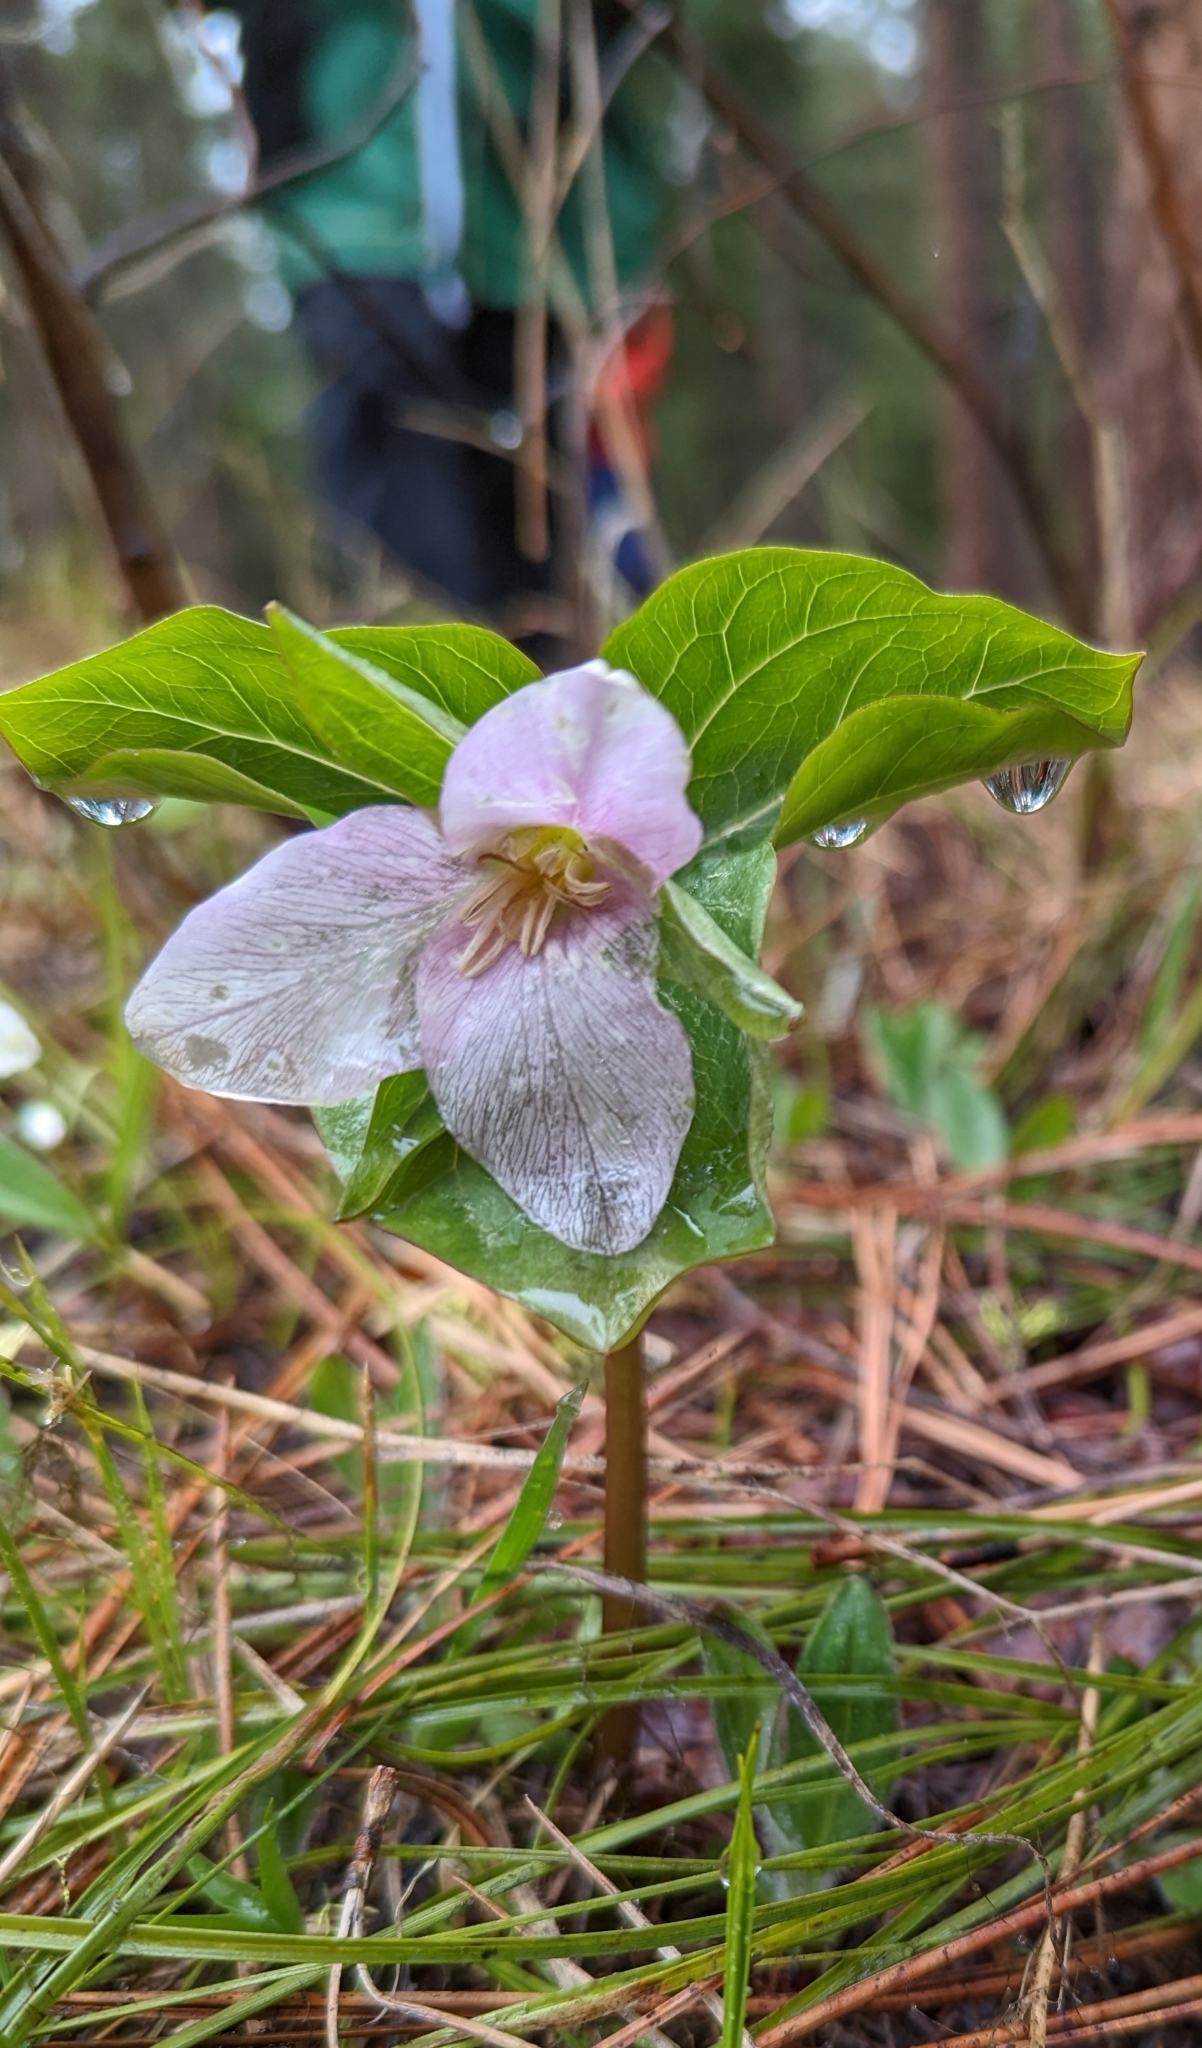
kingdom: Plantae
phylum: Tracheophyta
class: Liliopsida
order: Liliales
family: Melanthiaceae
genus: Trillium
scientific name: Trillium crassifolium
